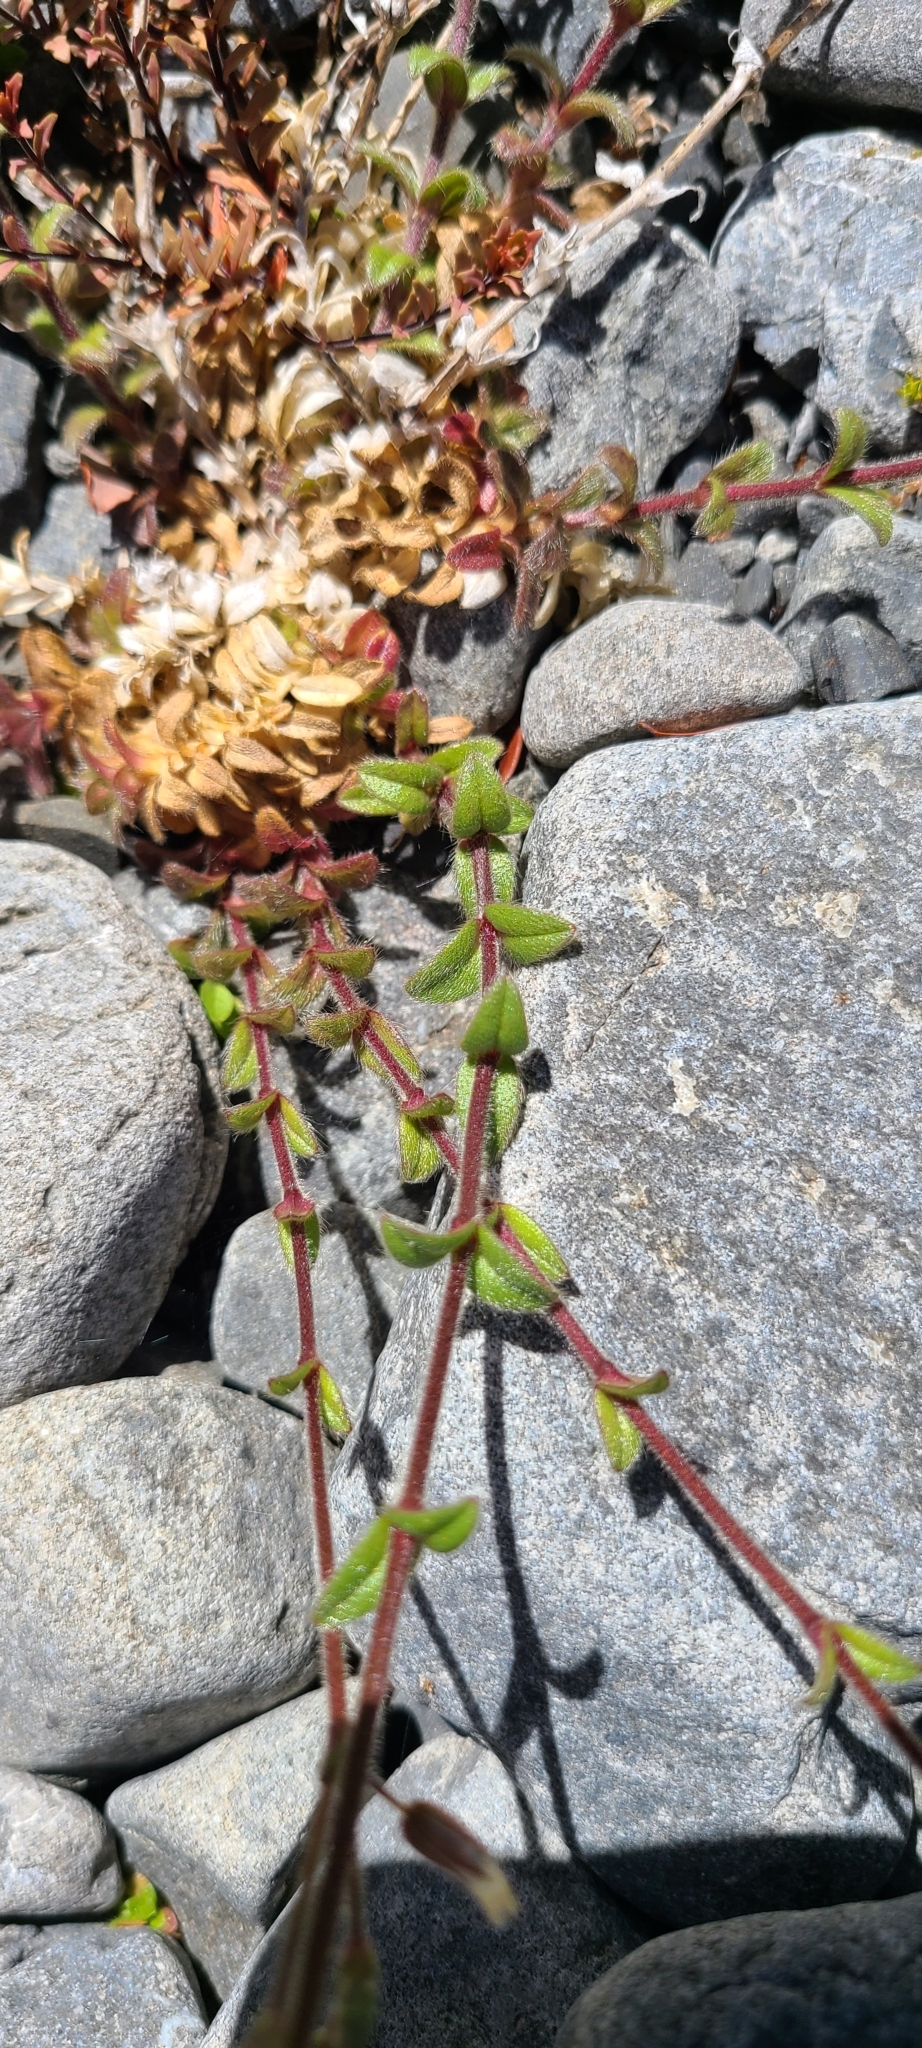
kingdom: Plantae
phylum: Tracheophyta
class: Magnoliopsida
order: Caryophyllales
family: Caryophyllaceae
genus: Cerastium
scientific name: Cerastium fontanum
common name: Common mouse-ear
